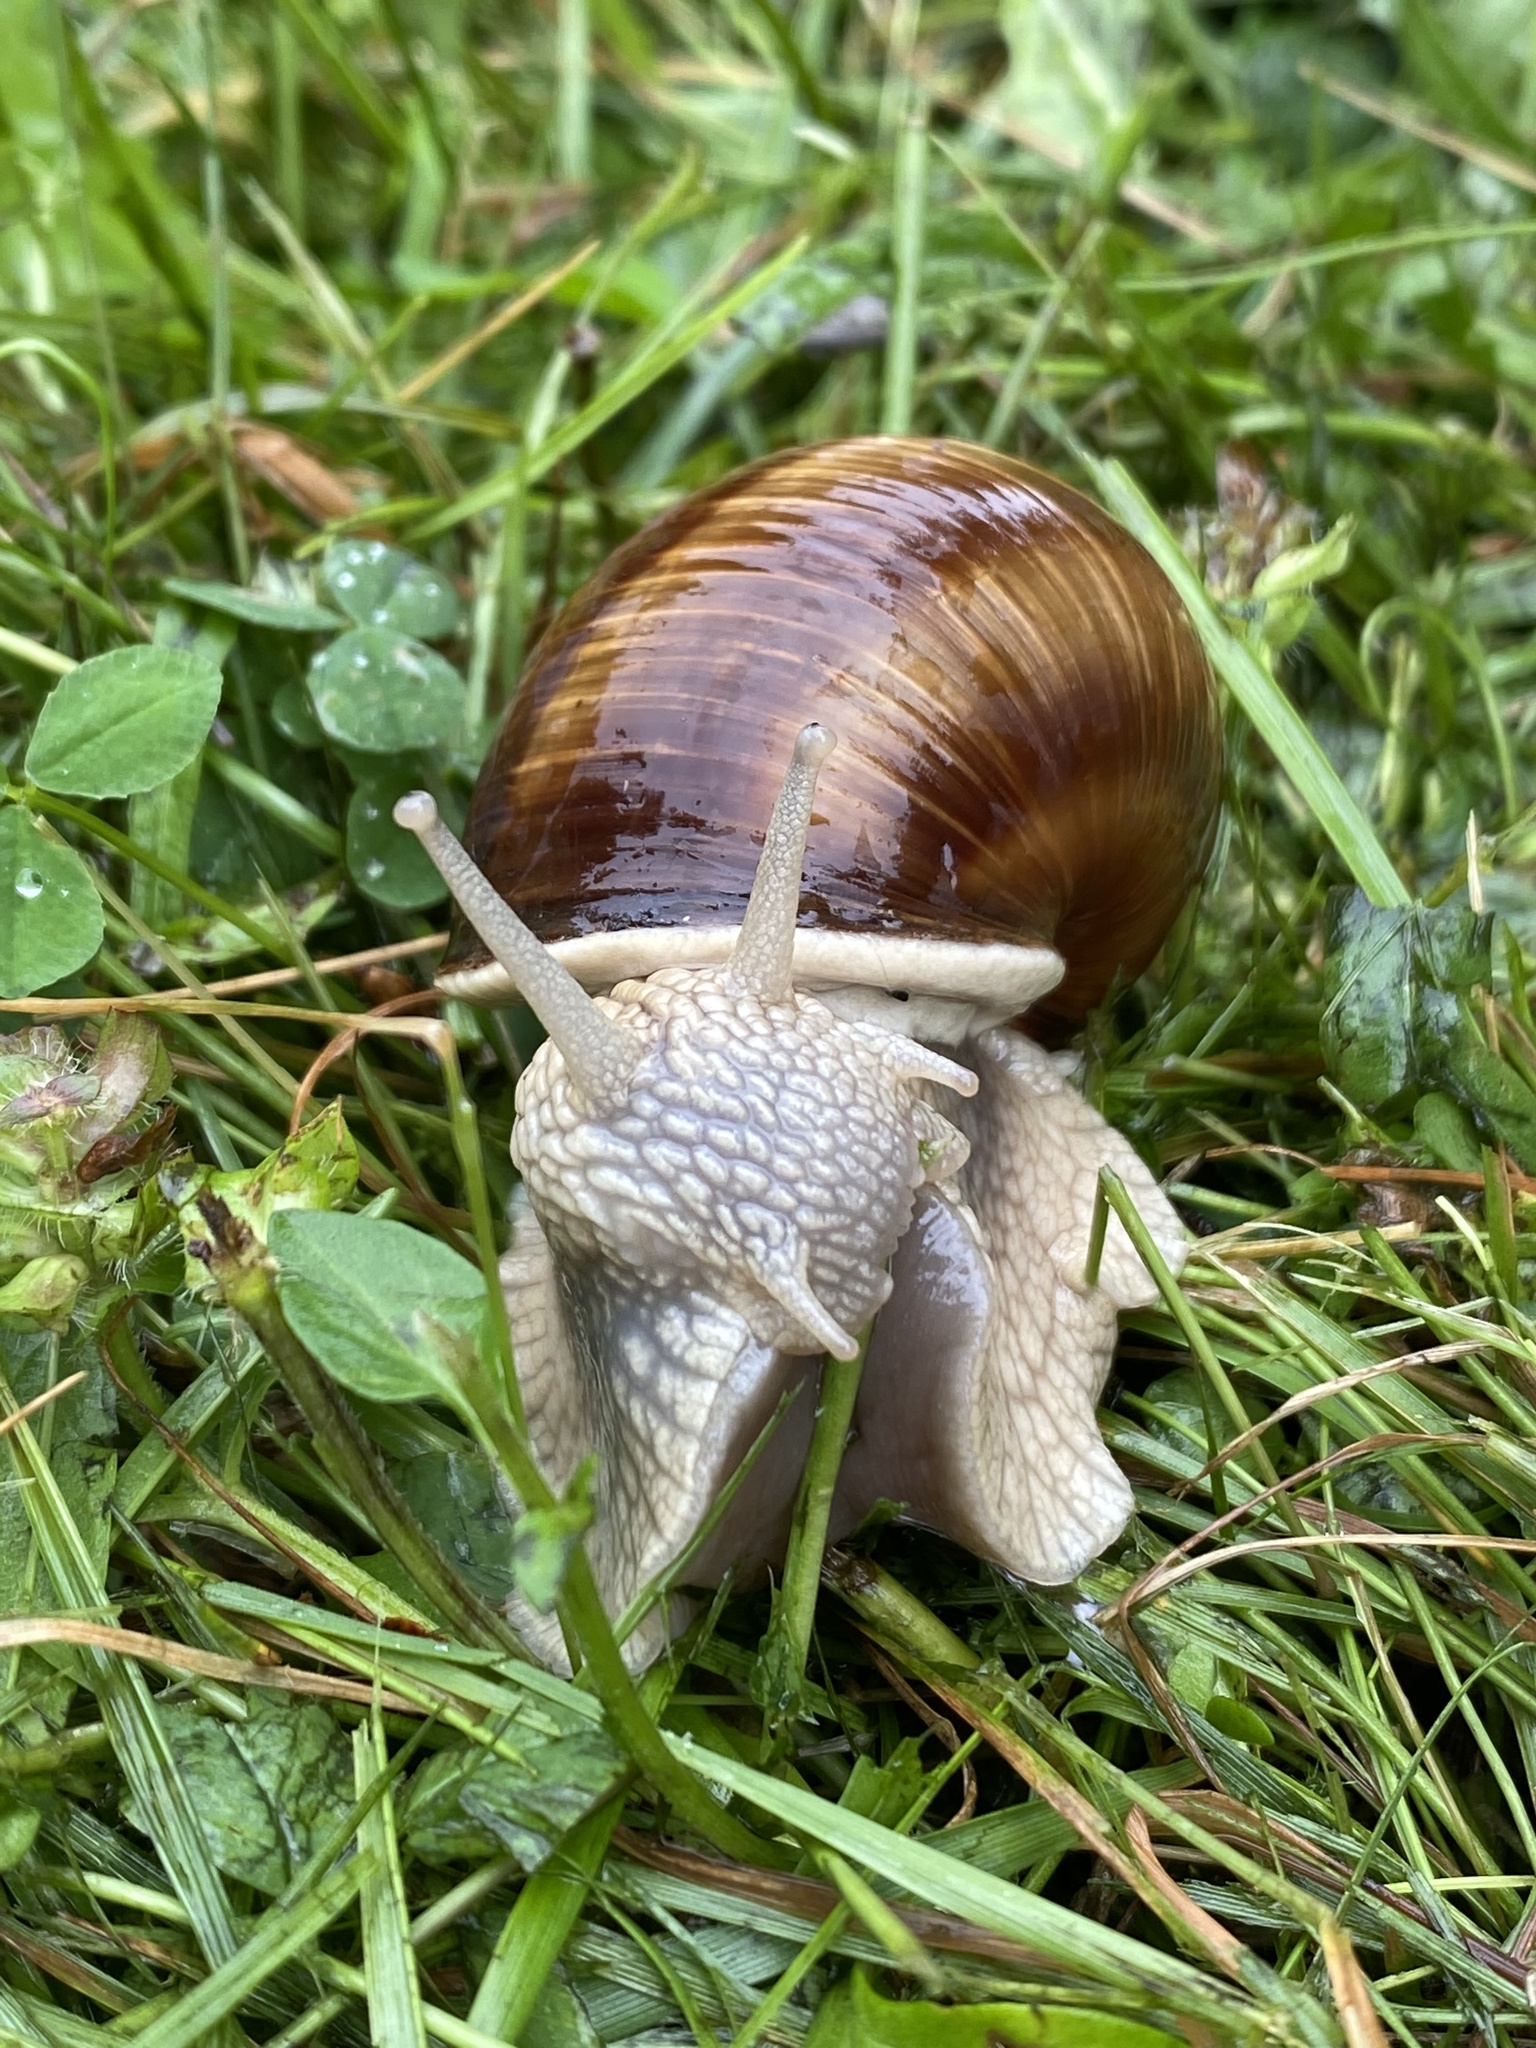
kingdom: Animalia
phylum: Mollusca
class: Gastropoda
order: Stylommatophora
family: Helicidae
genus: Helix
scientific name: Helix pomatia
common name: Roman snail
